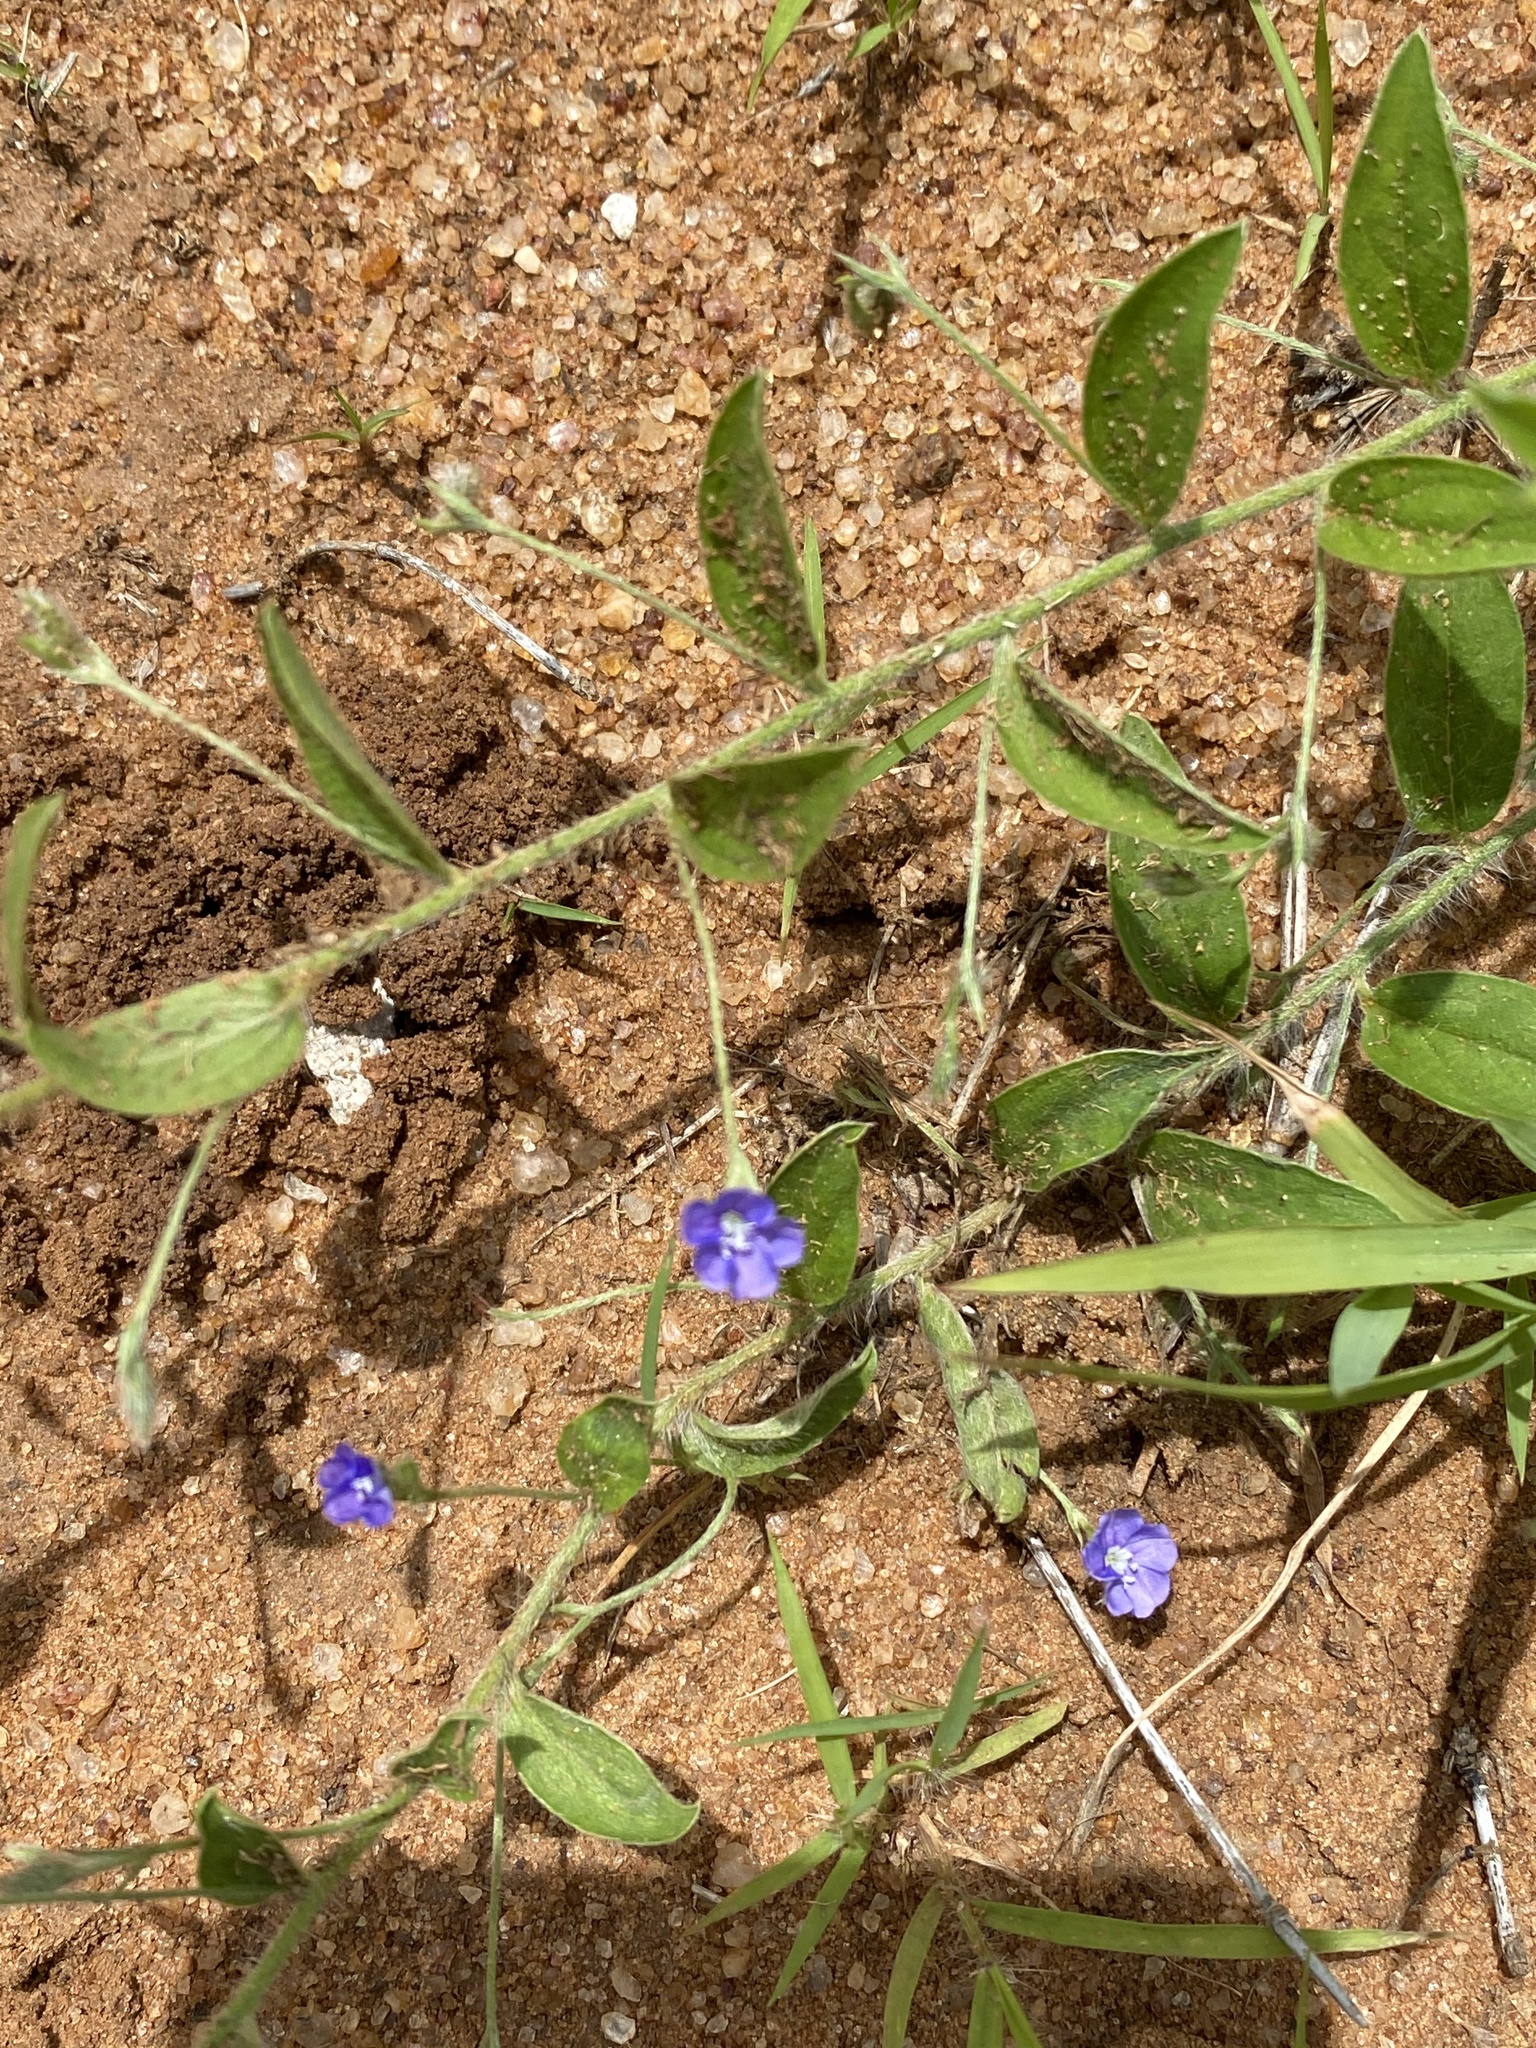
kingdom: Plantae
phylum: Tracheophyta
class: Magnoliopsida
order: Solanales
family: Convolvulaceae
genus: Evolvulus
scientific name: Evolvulus alsinoides
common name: Slender dwarf morning-glory
